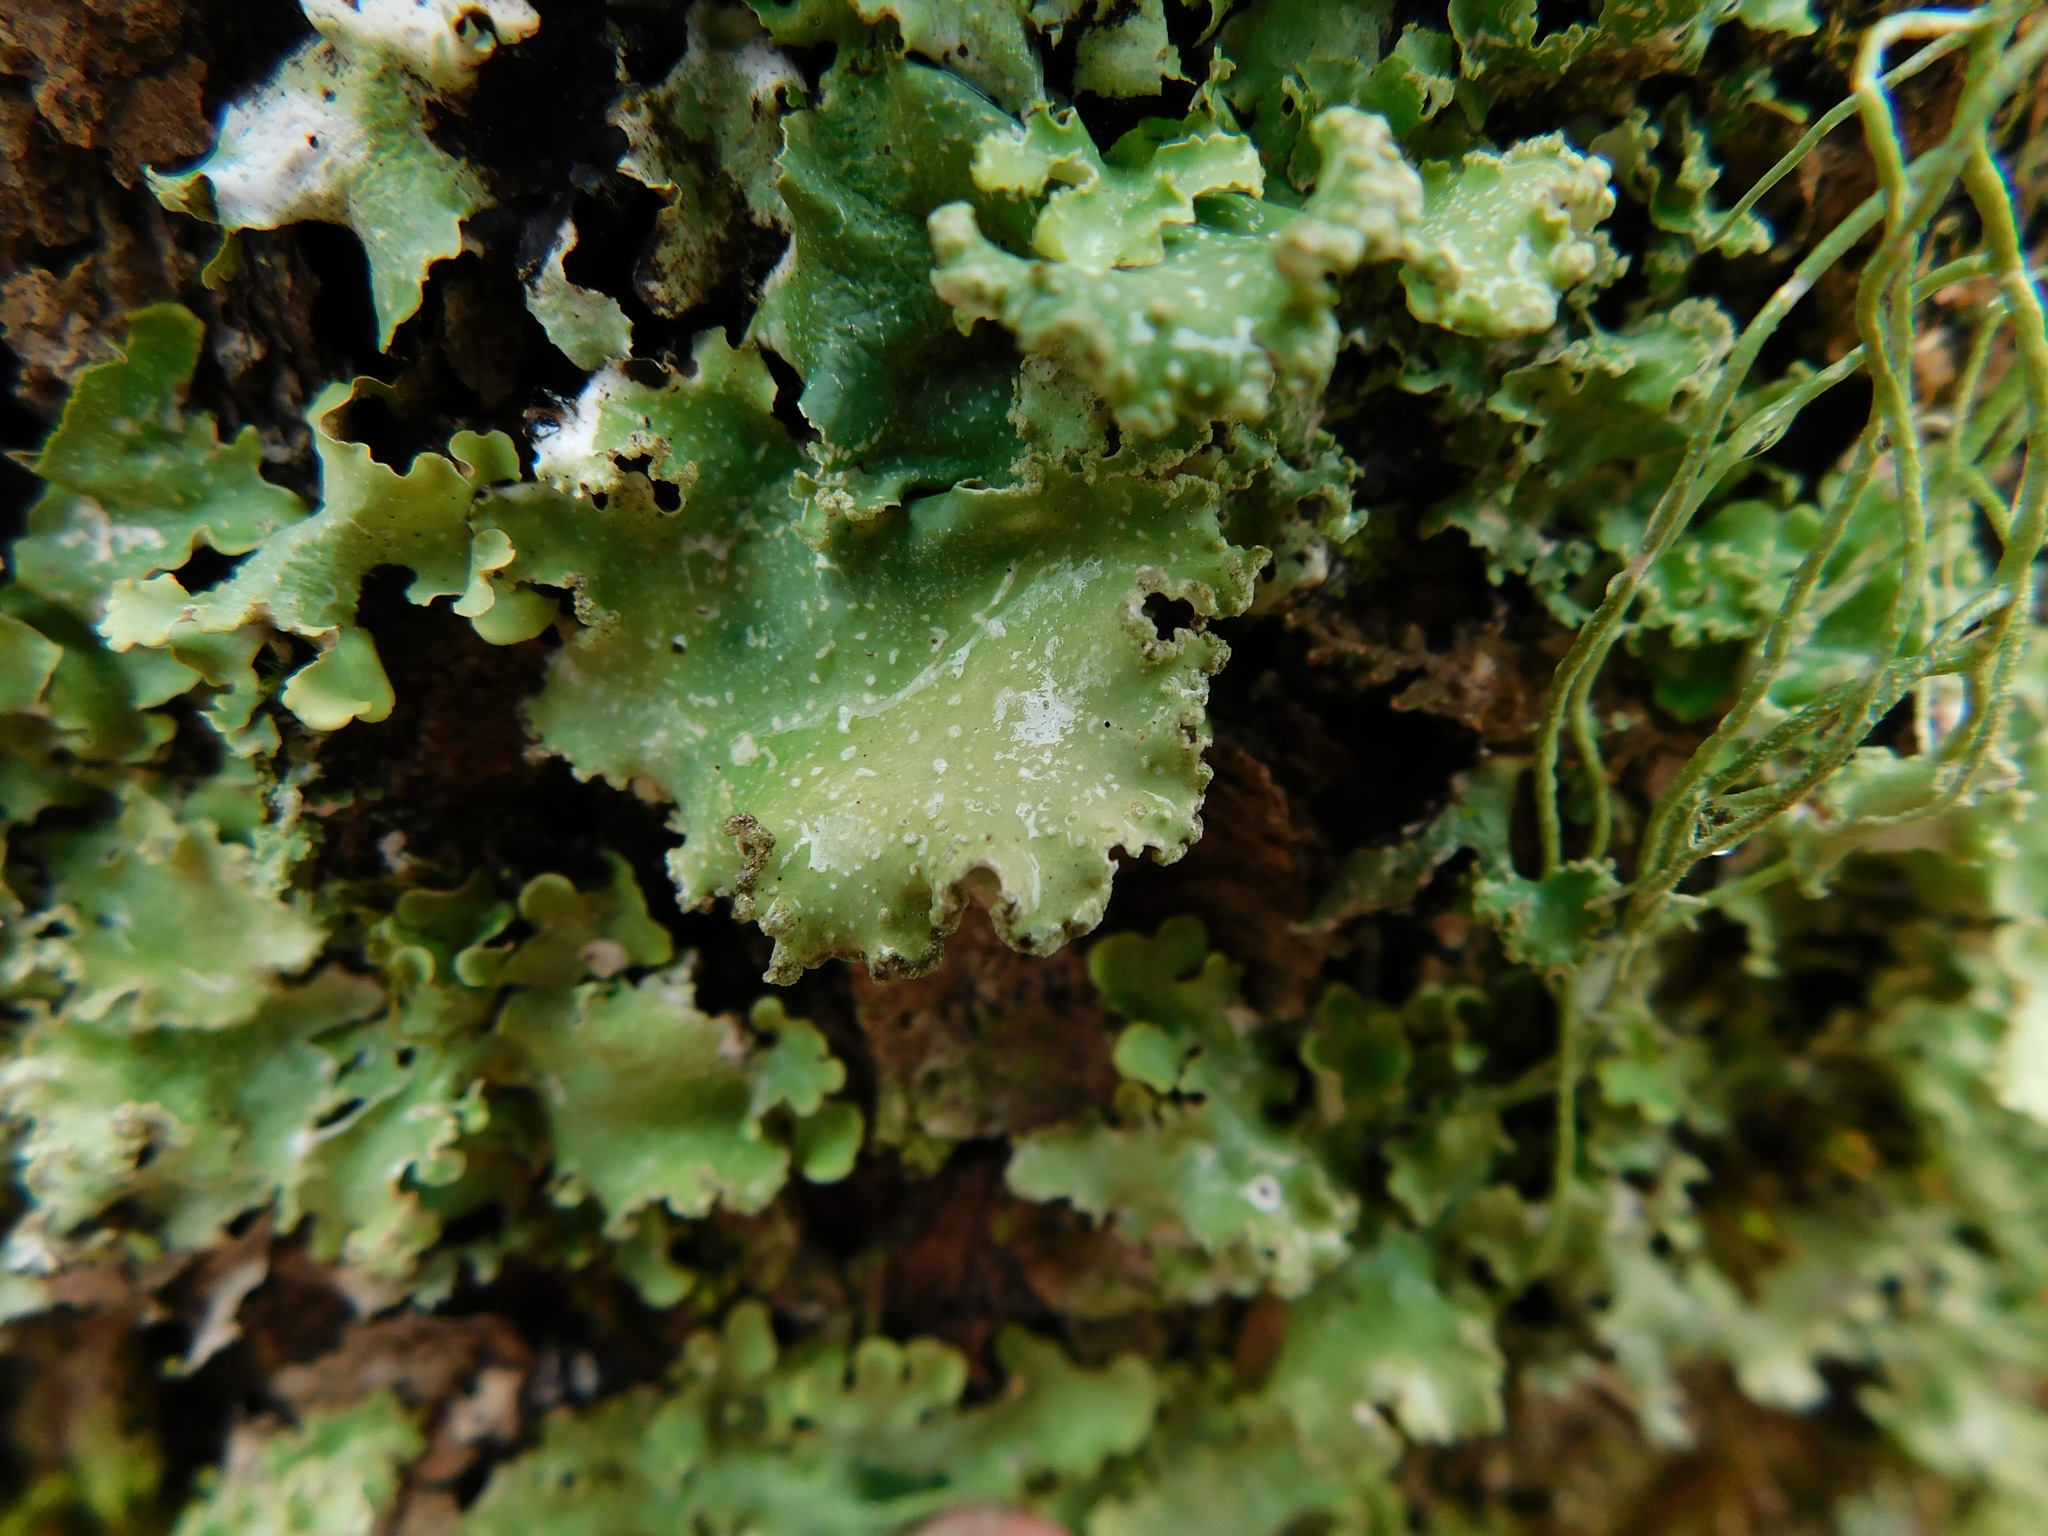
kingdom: Fungi
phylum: Ascomycota
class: Lecanoromycetes
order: Lecanorales
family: Parmeliaceae
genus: Cetrelia
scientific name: Cetrelia olivetorum
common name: Sea storm lichen
